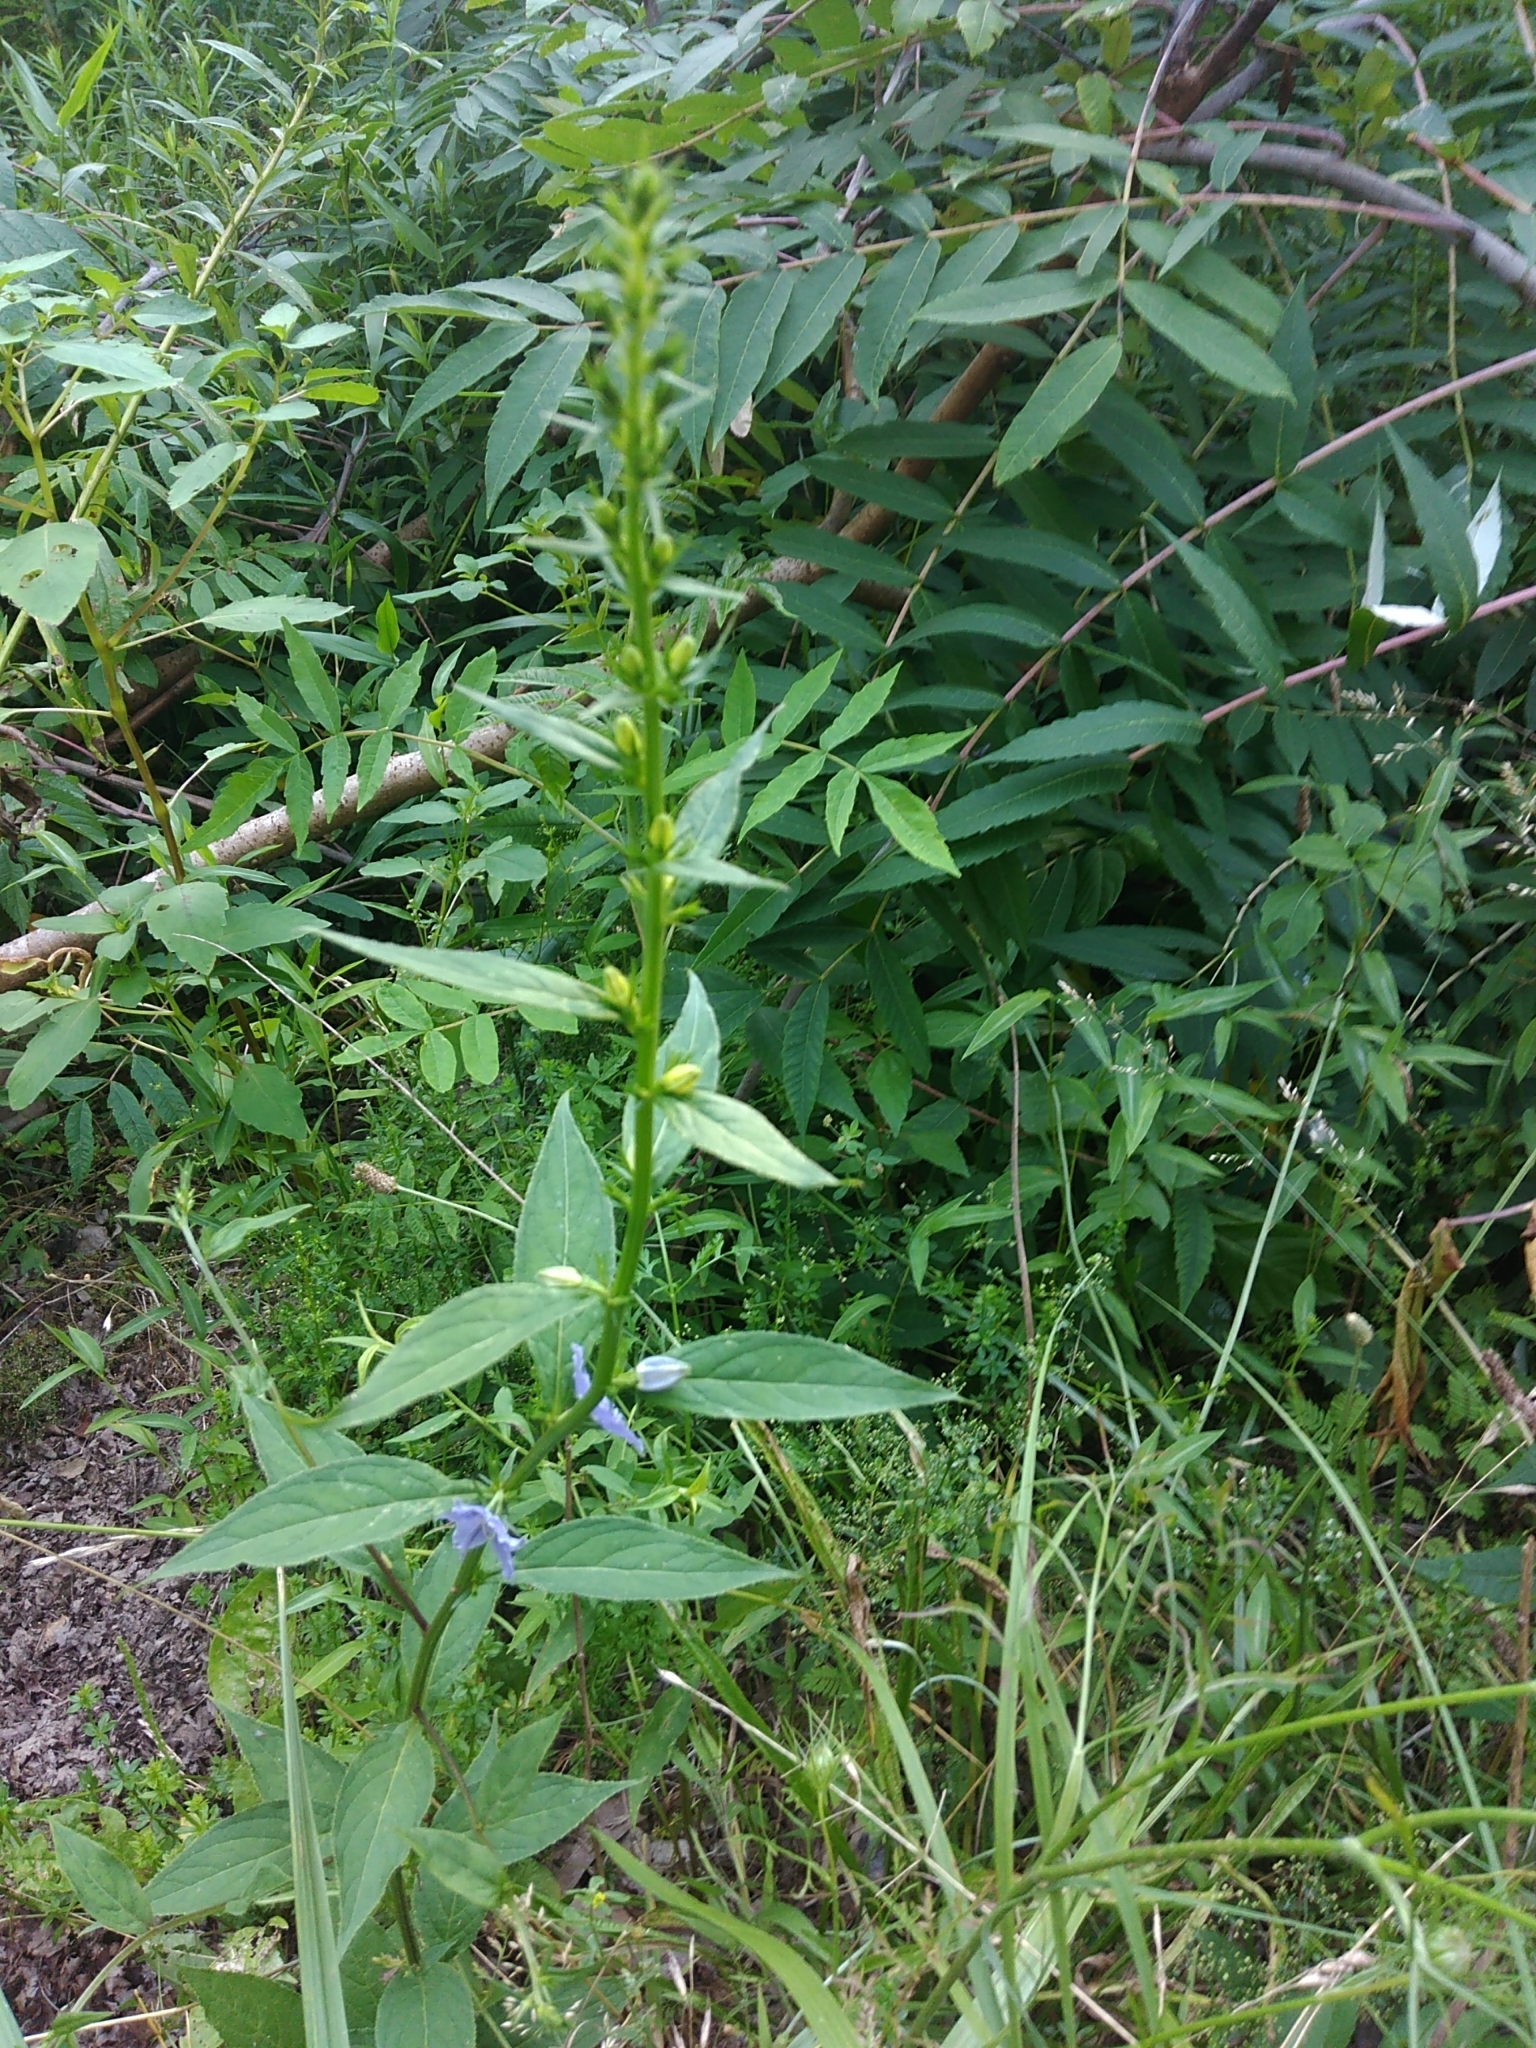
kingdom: Plantae
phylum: Tracheophyta
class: Magnoliopsida
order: Asterales
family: Campanulaceae
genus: Campanulastrum
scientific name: Campanulastrum americanum
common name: American bellflower
